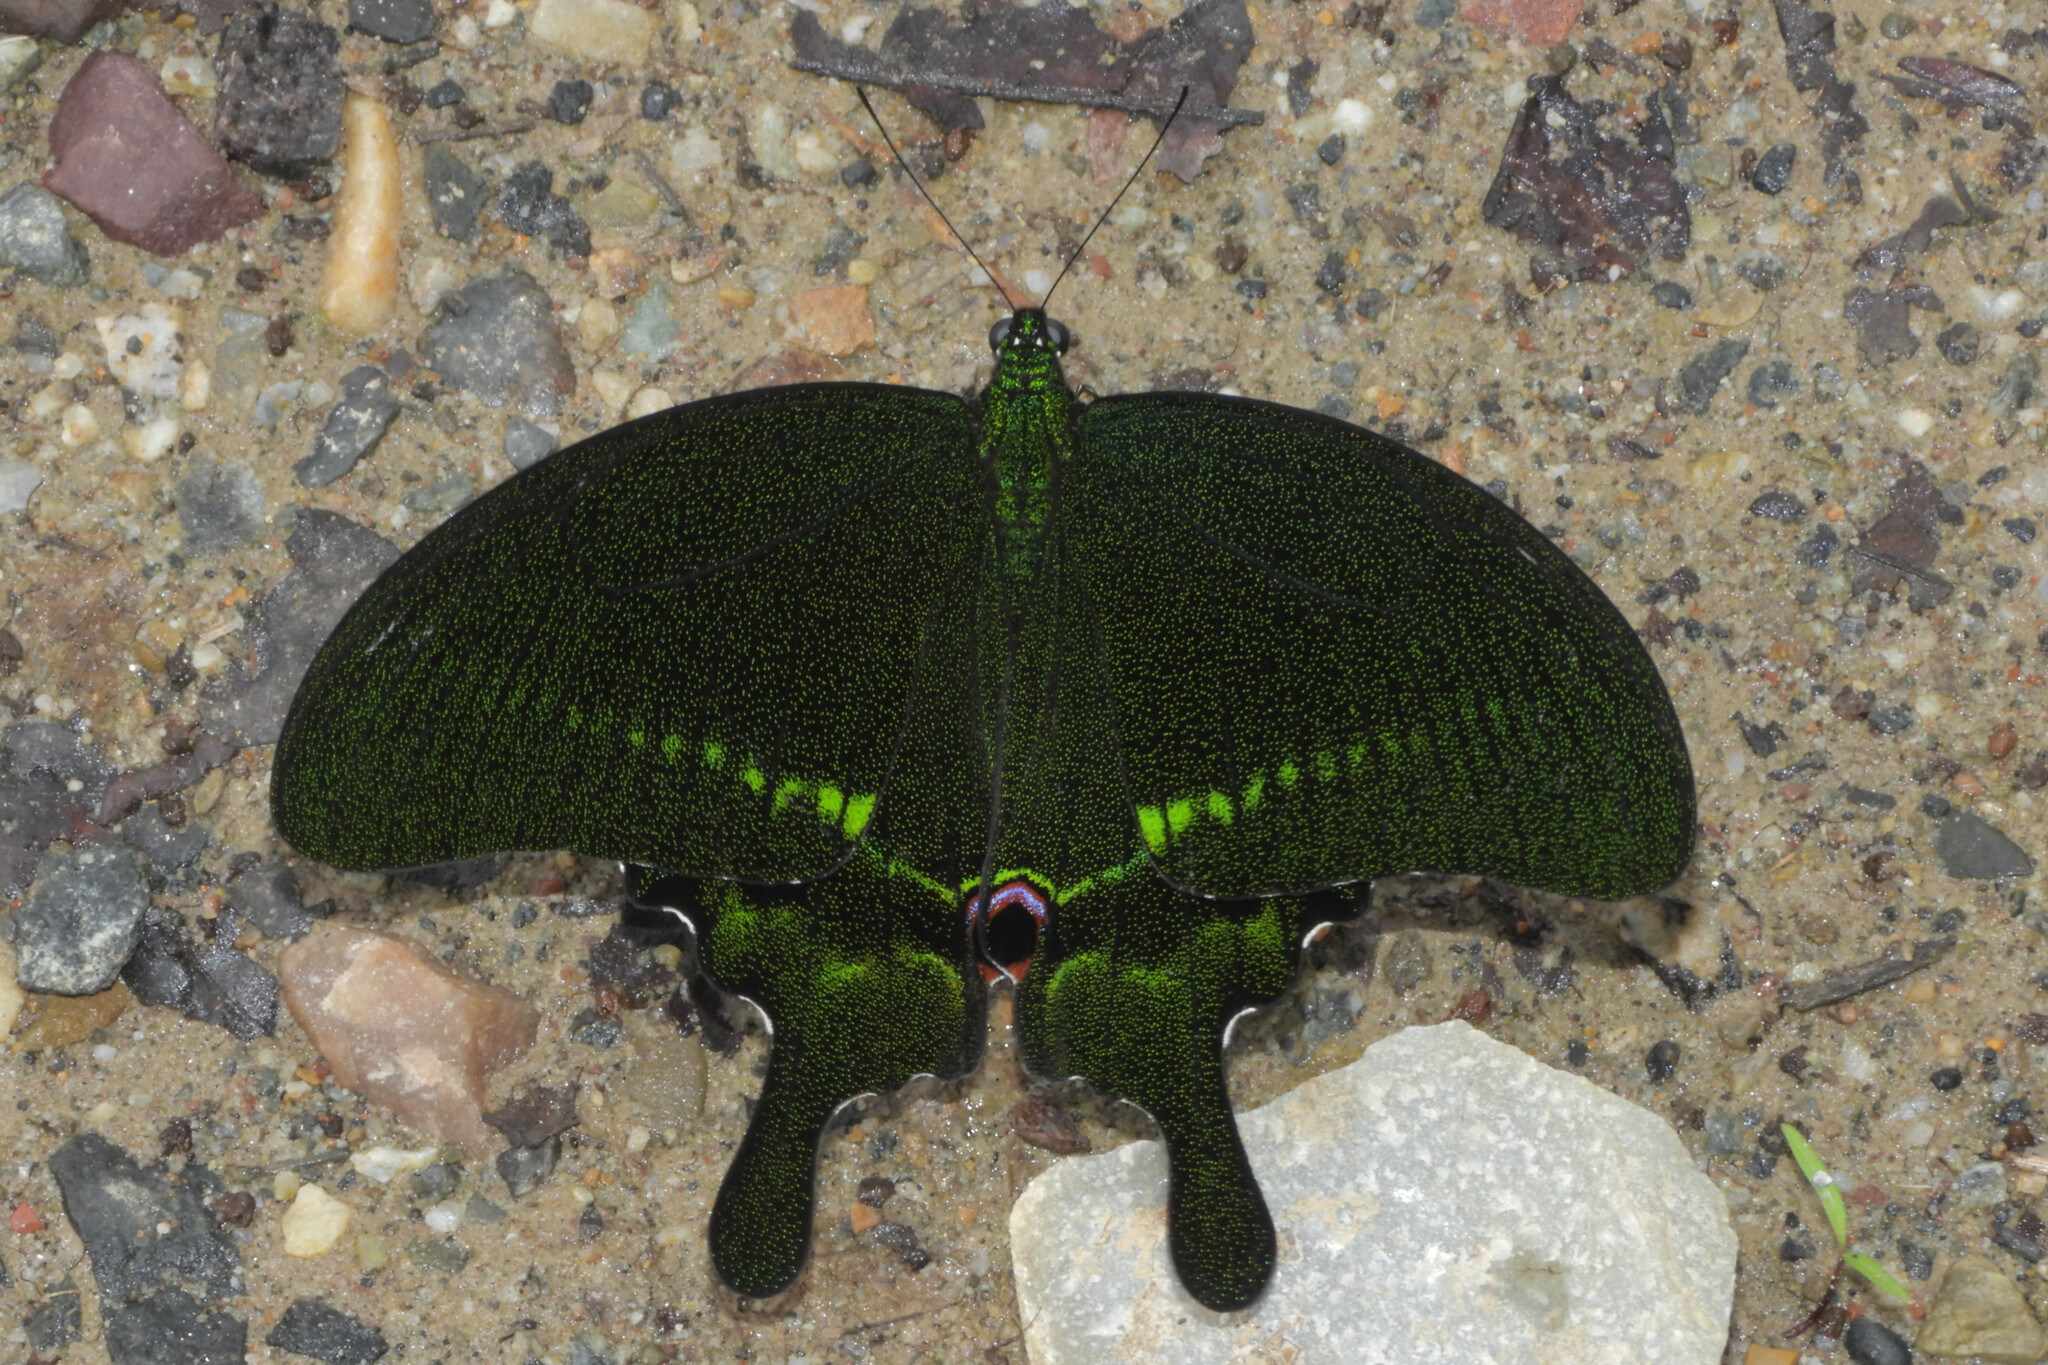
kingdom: Animalia
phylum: Arthropoda
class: Insecta
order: Lepidoptera
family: Papilionidae
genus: Papilio
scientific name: Papilio paris
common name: Paris peacock
